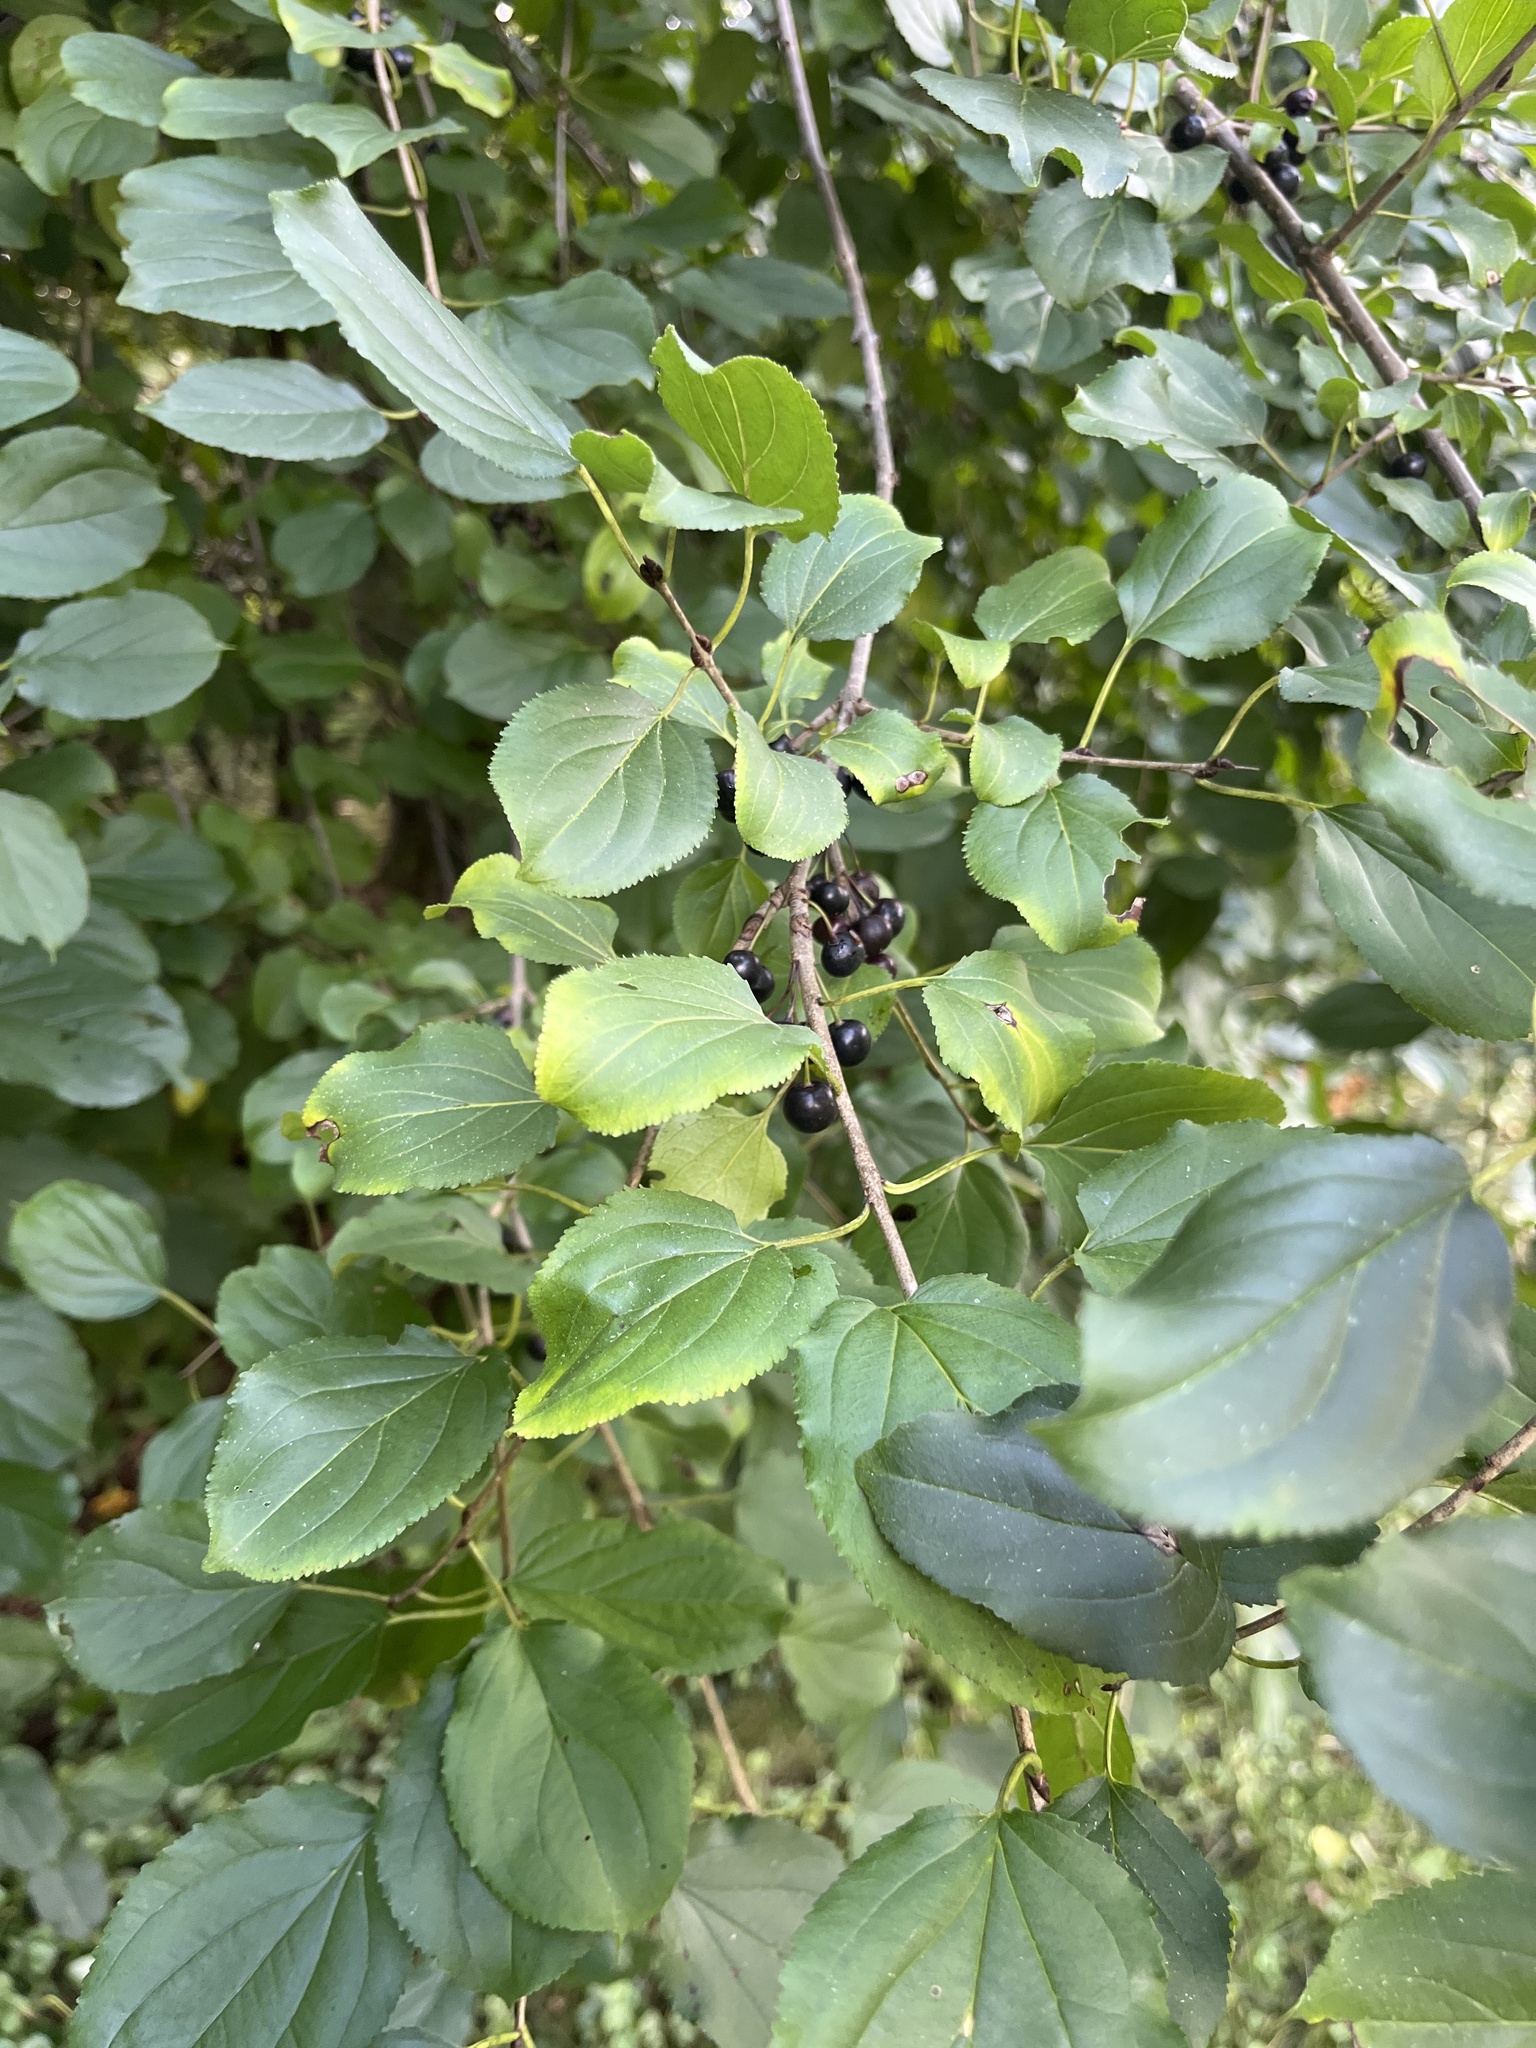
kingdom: Plantae
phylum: Tracheophyta
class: Magnoliopsida
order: Rosales
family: Rhamnaceae
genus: Rhamnus
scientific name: Rhamnus cathartica
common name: Common buckthorn
